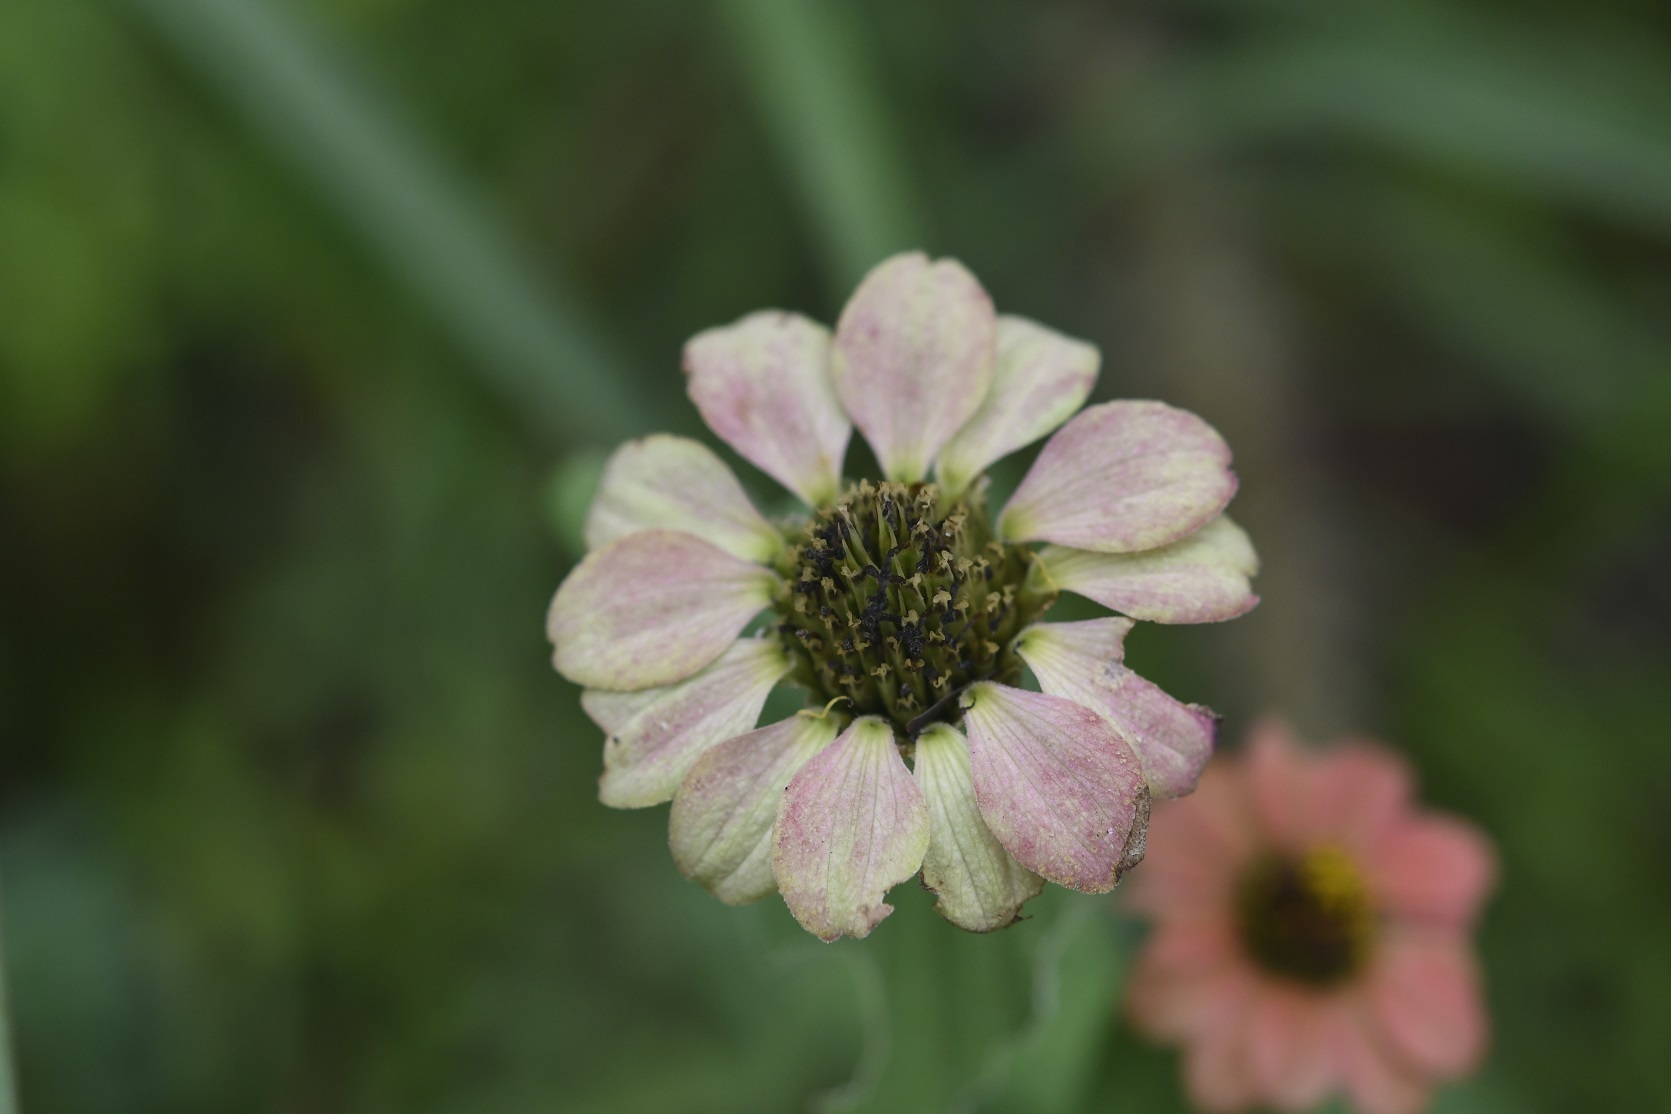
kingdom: Plantae
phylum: Tracheophyta
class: Magnoliopsida
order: Asterales
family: Asteraceae
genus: Zinnia
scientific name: Zinnia peruviana
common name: Peruvian zinnia
